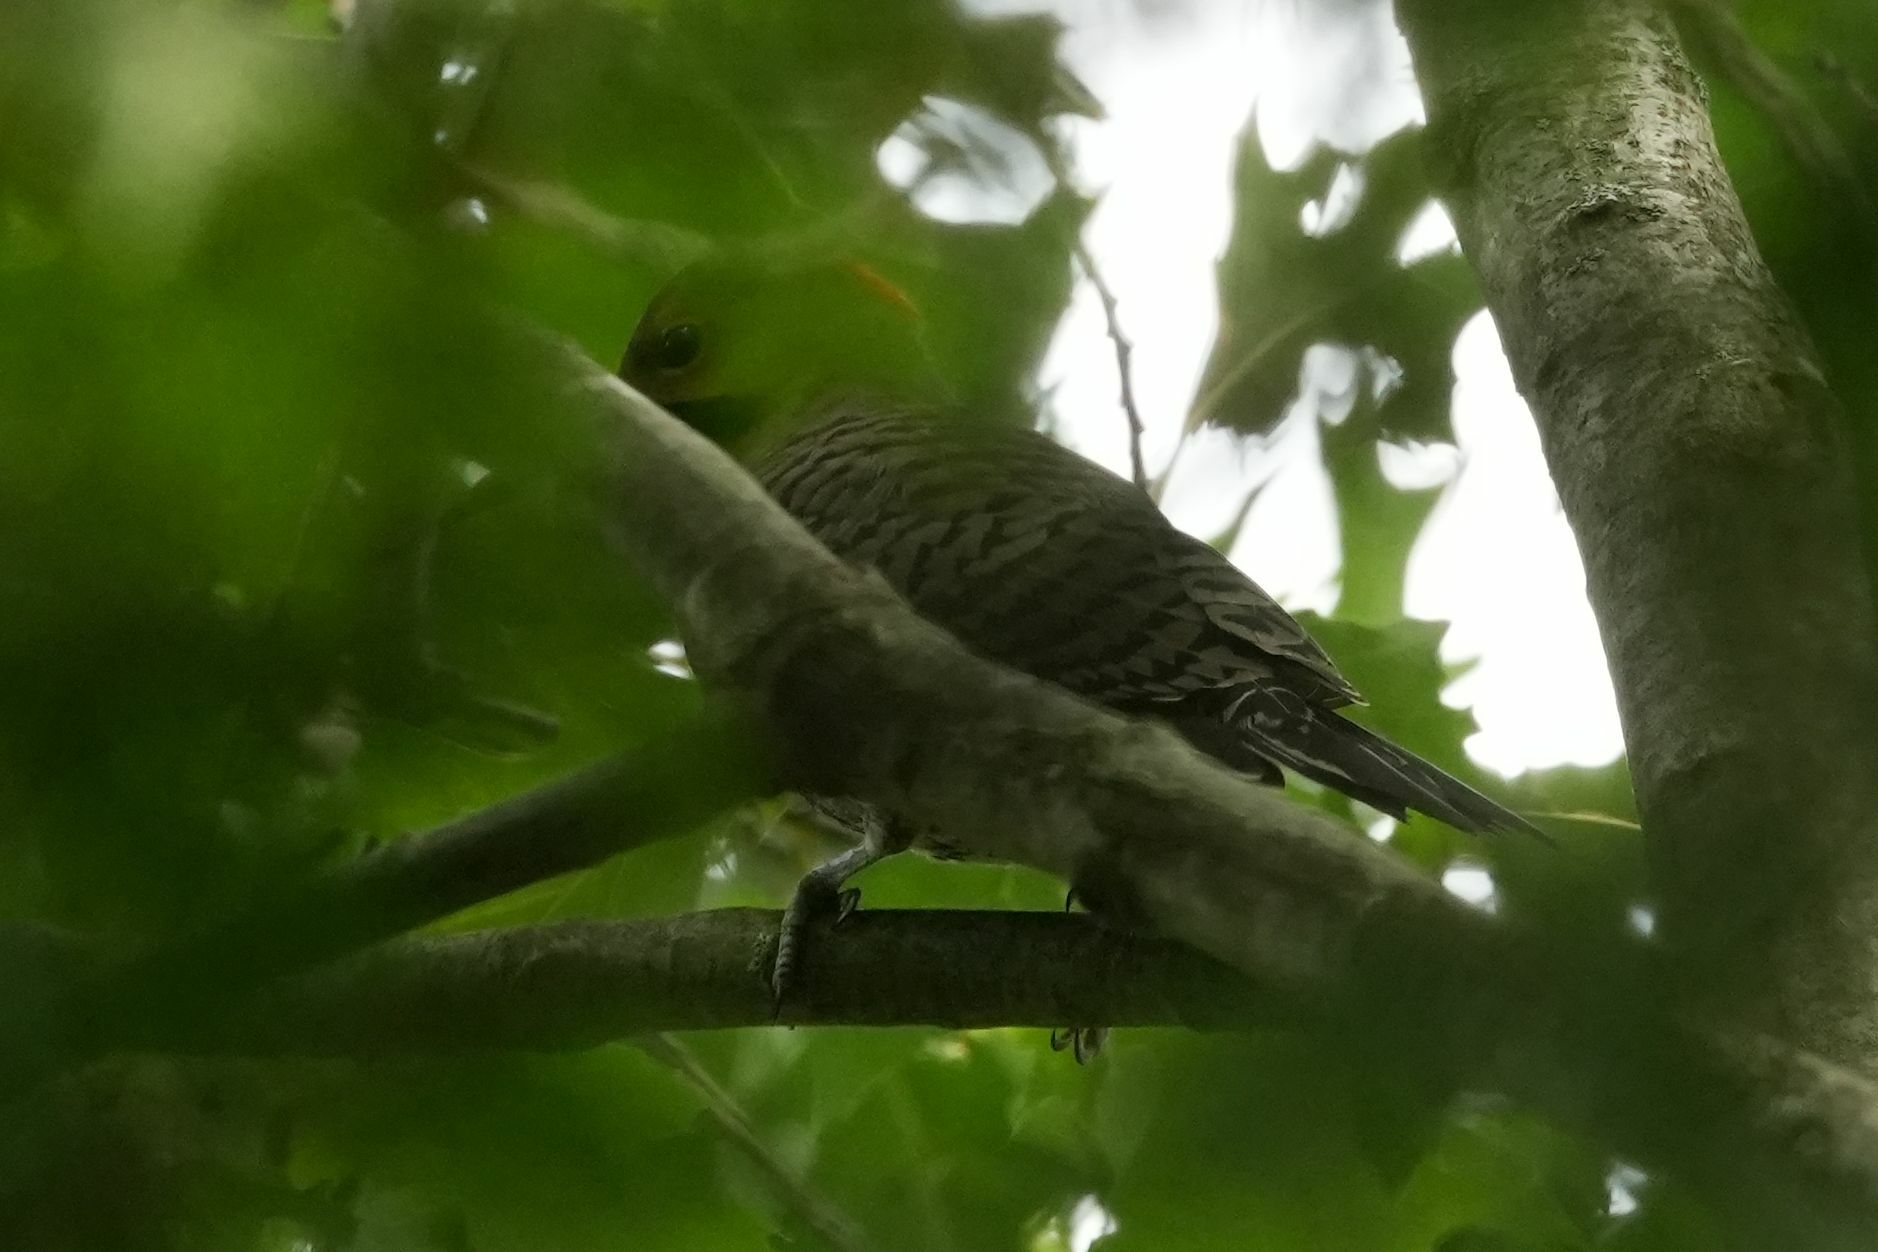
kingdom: Animalia
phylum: Chordata
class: Aves
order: Piciformes
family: Picidae
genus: Colaptes
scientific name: Colaptes auratus
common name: Northern flicker
